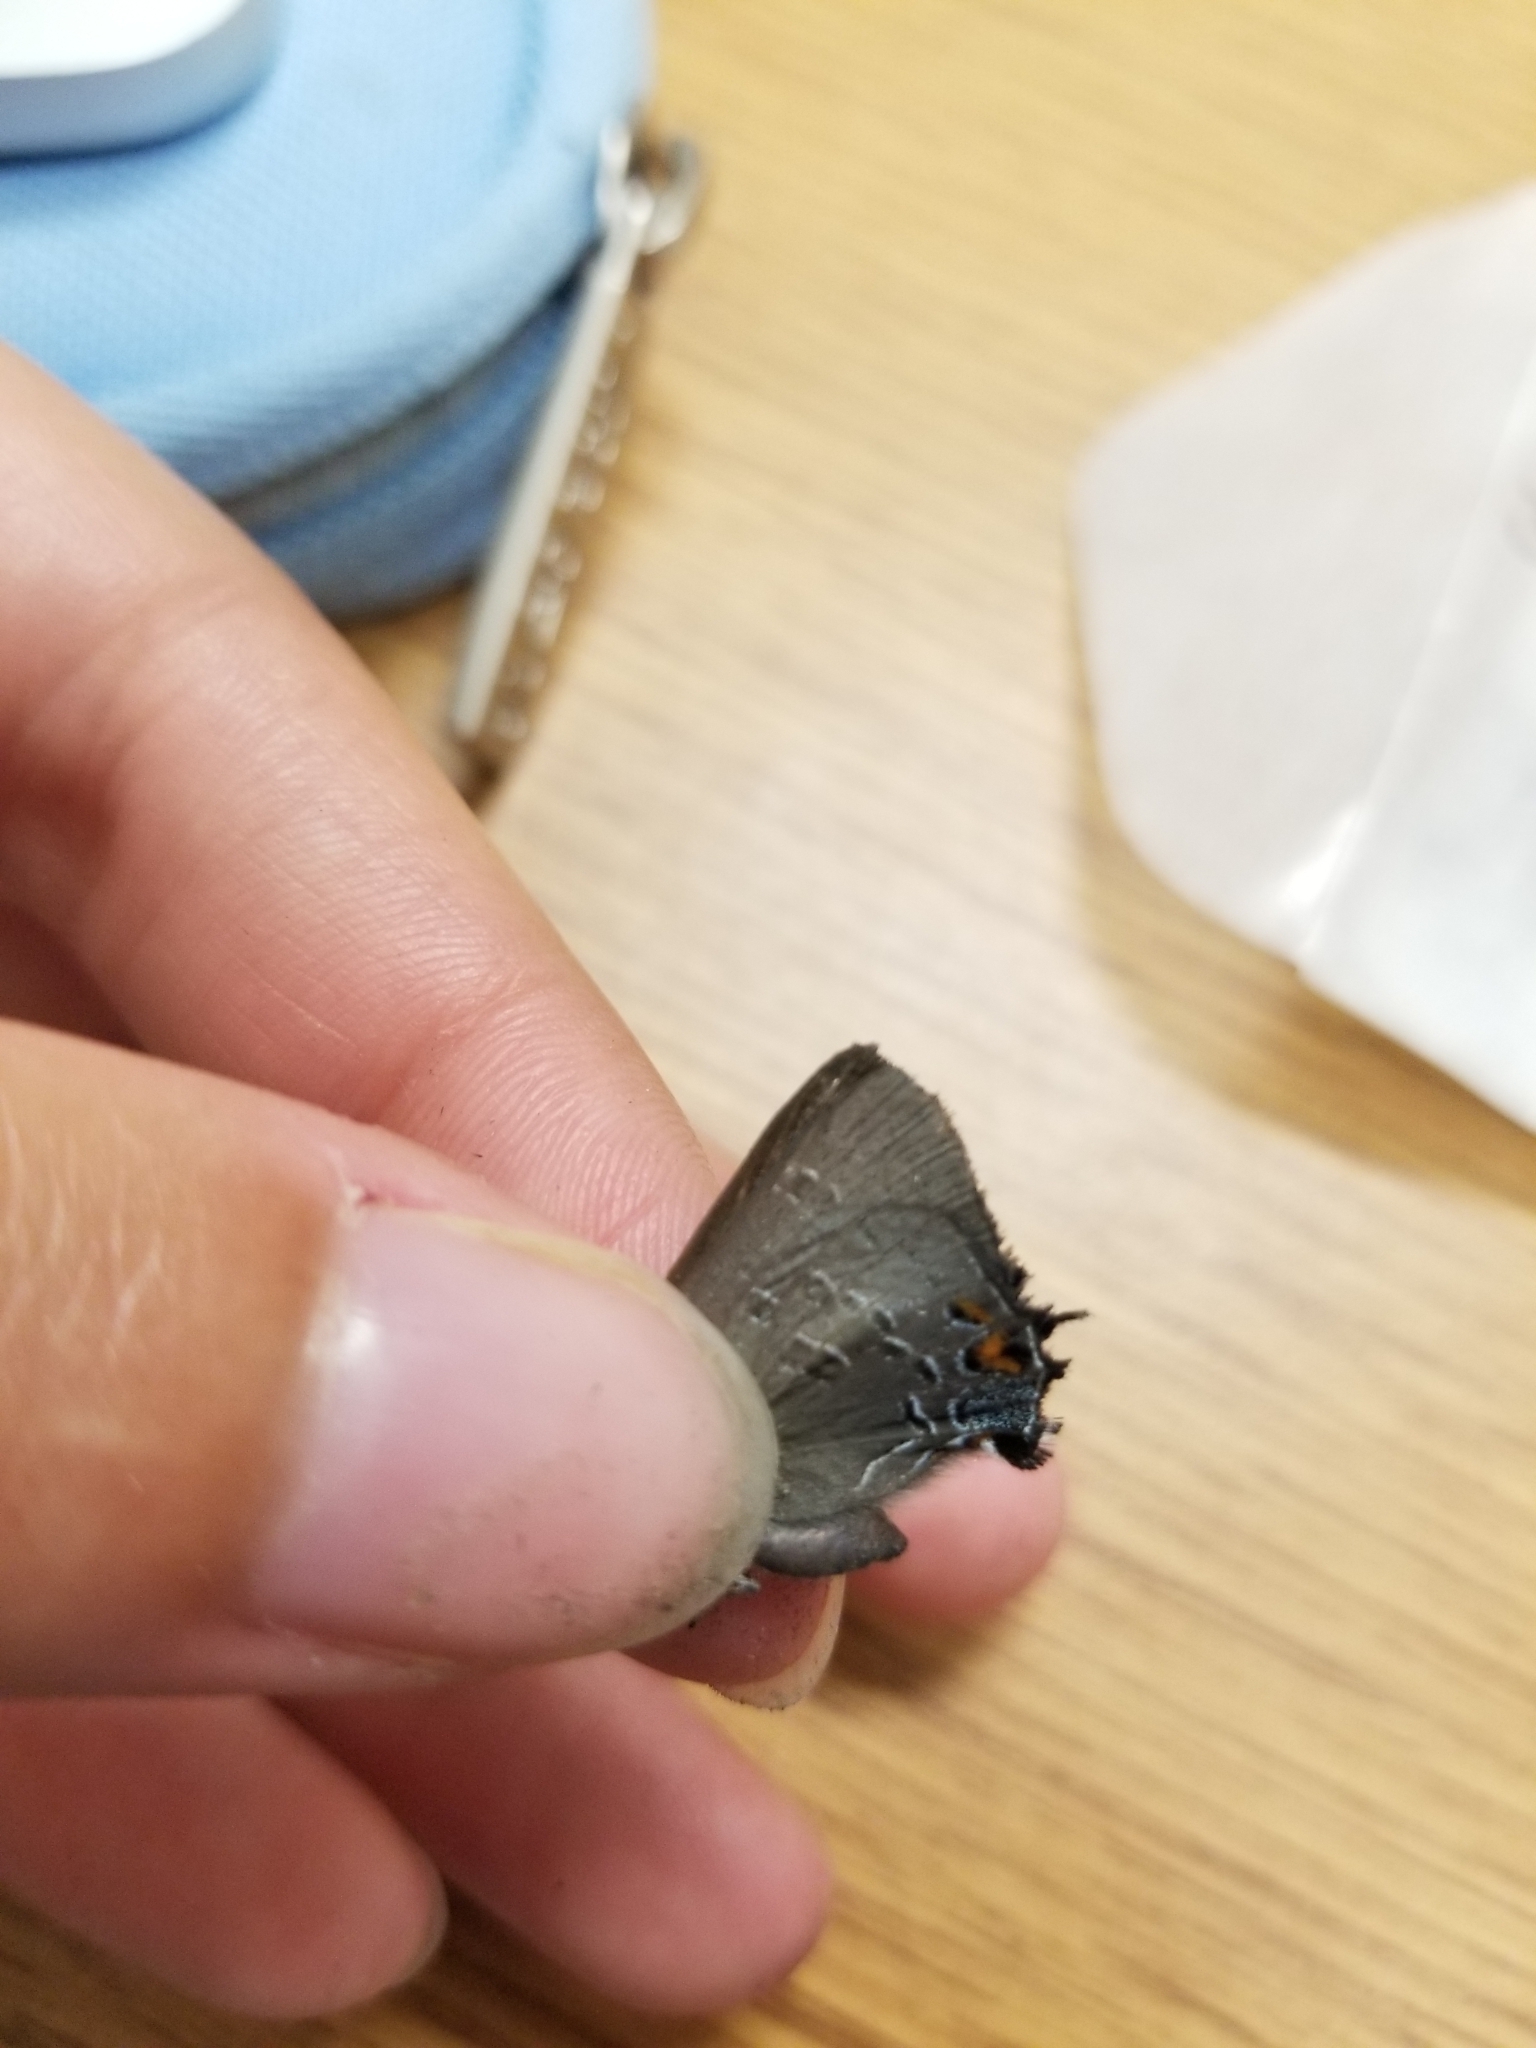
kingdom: Animalia
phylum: Arthropoda
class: Insecta
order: Lepidoptera
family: Lycaenidae
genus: Satyrium
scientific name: Satyrium calanus
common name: Banded hairstreak
